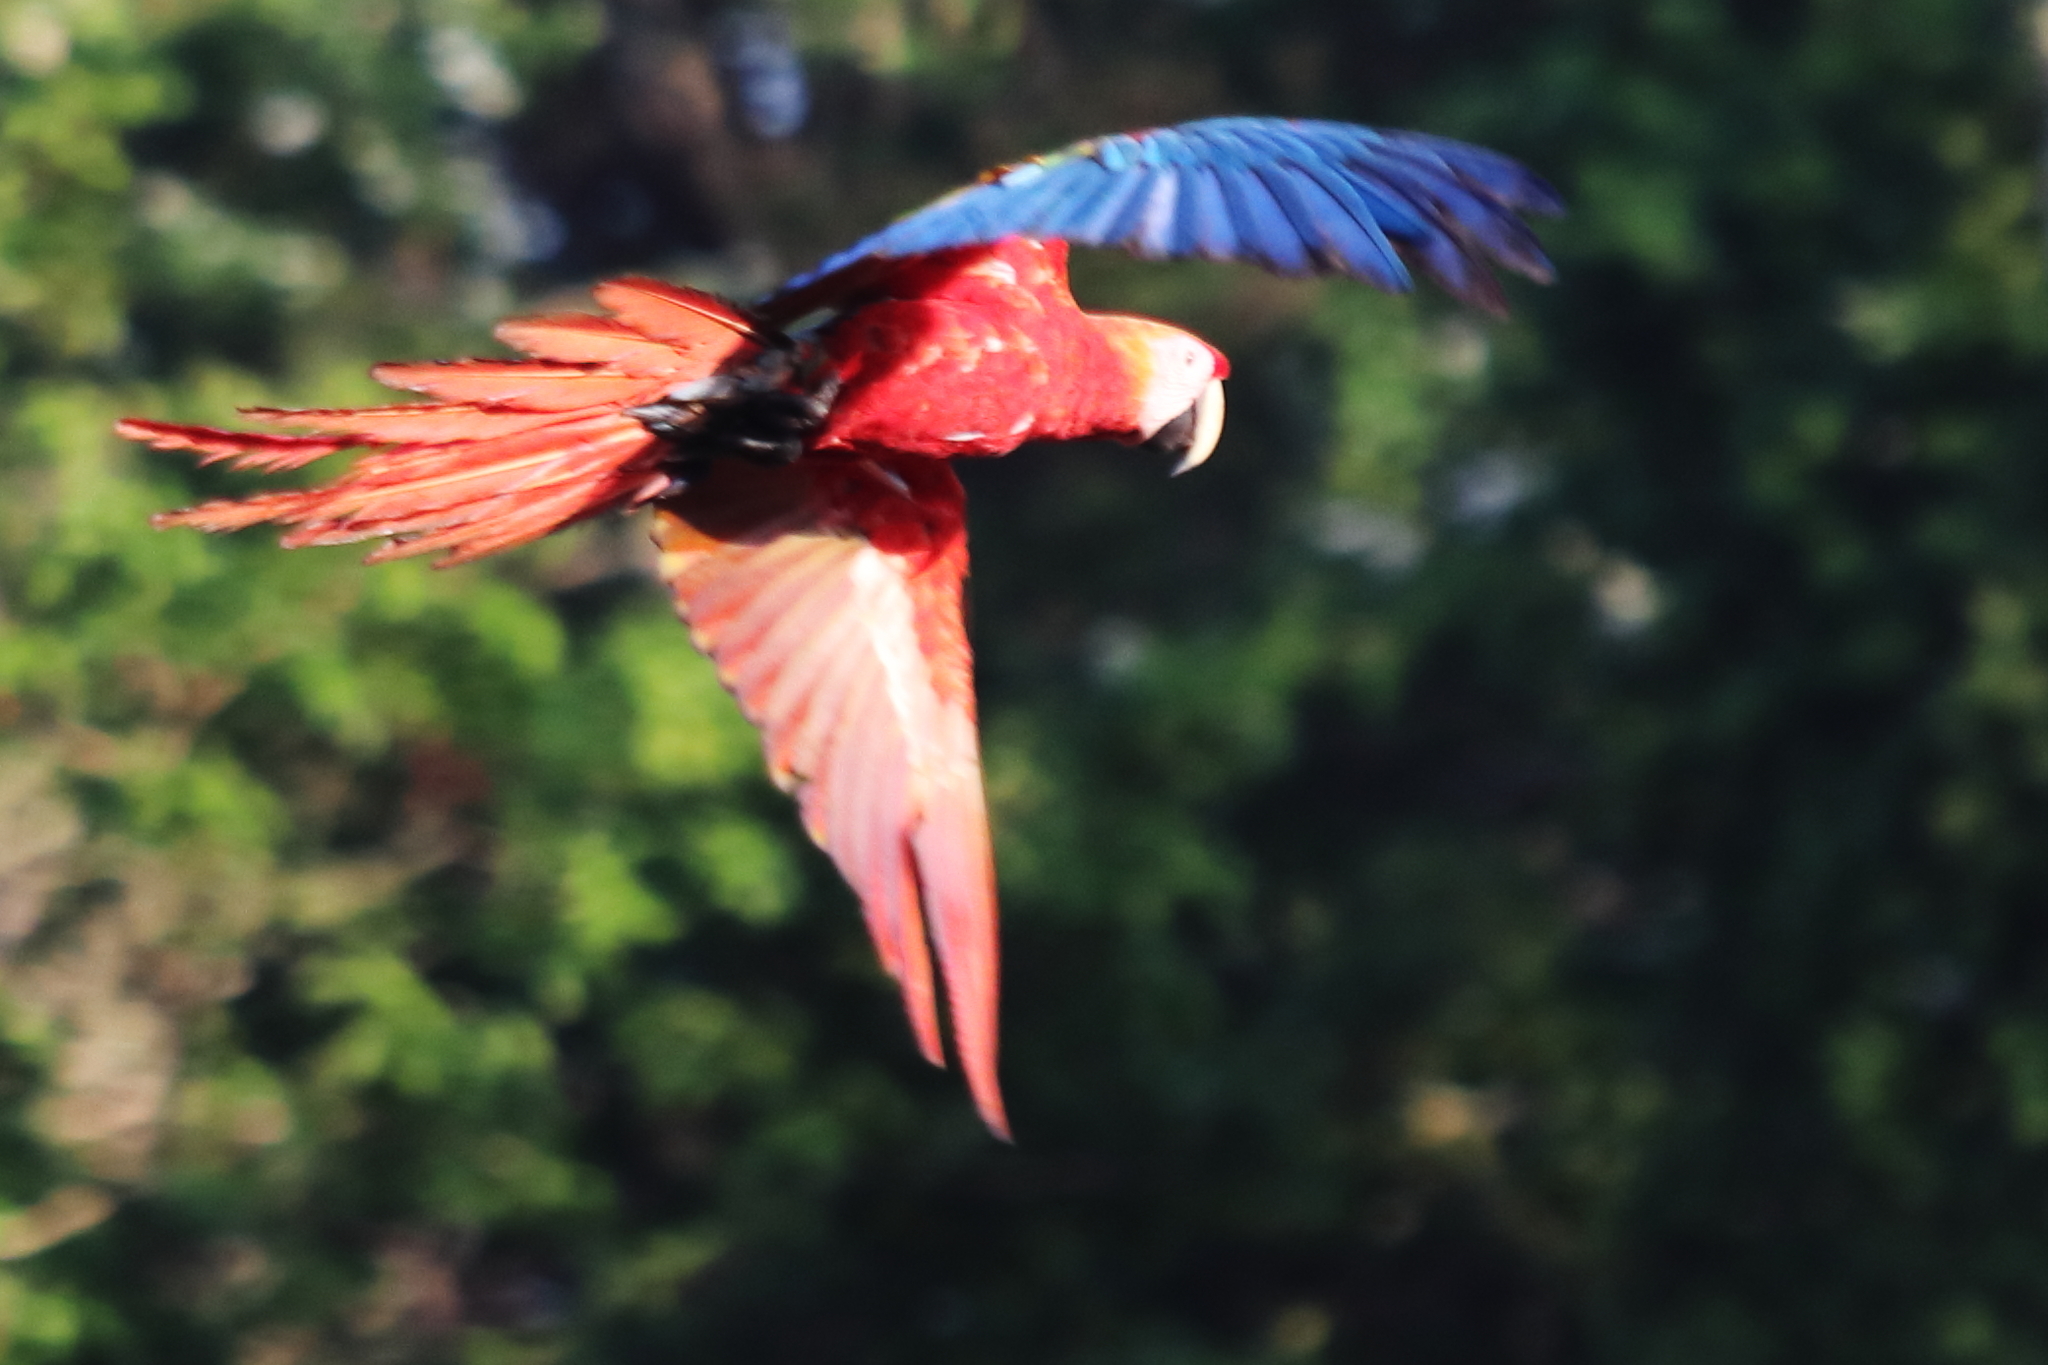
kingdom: Animalia
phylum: Chordata
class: Aves
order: Psittaciformes
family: Psittacidae
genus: Ara
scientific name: Ara macao
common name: Scarlet macaw
